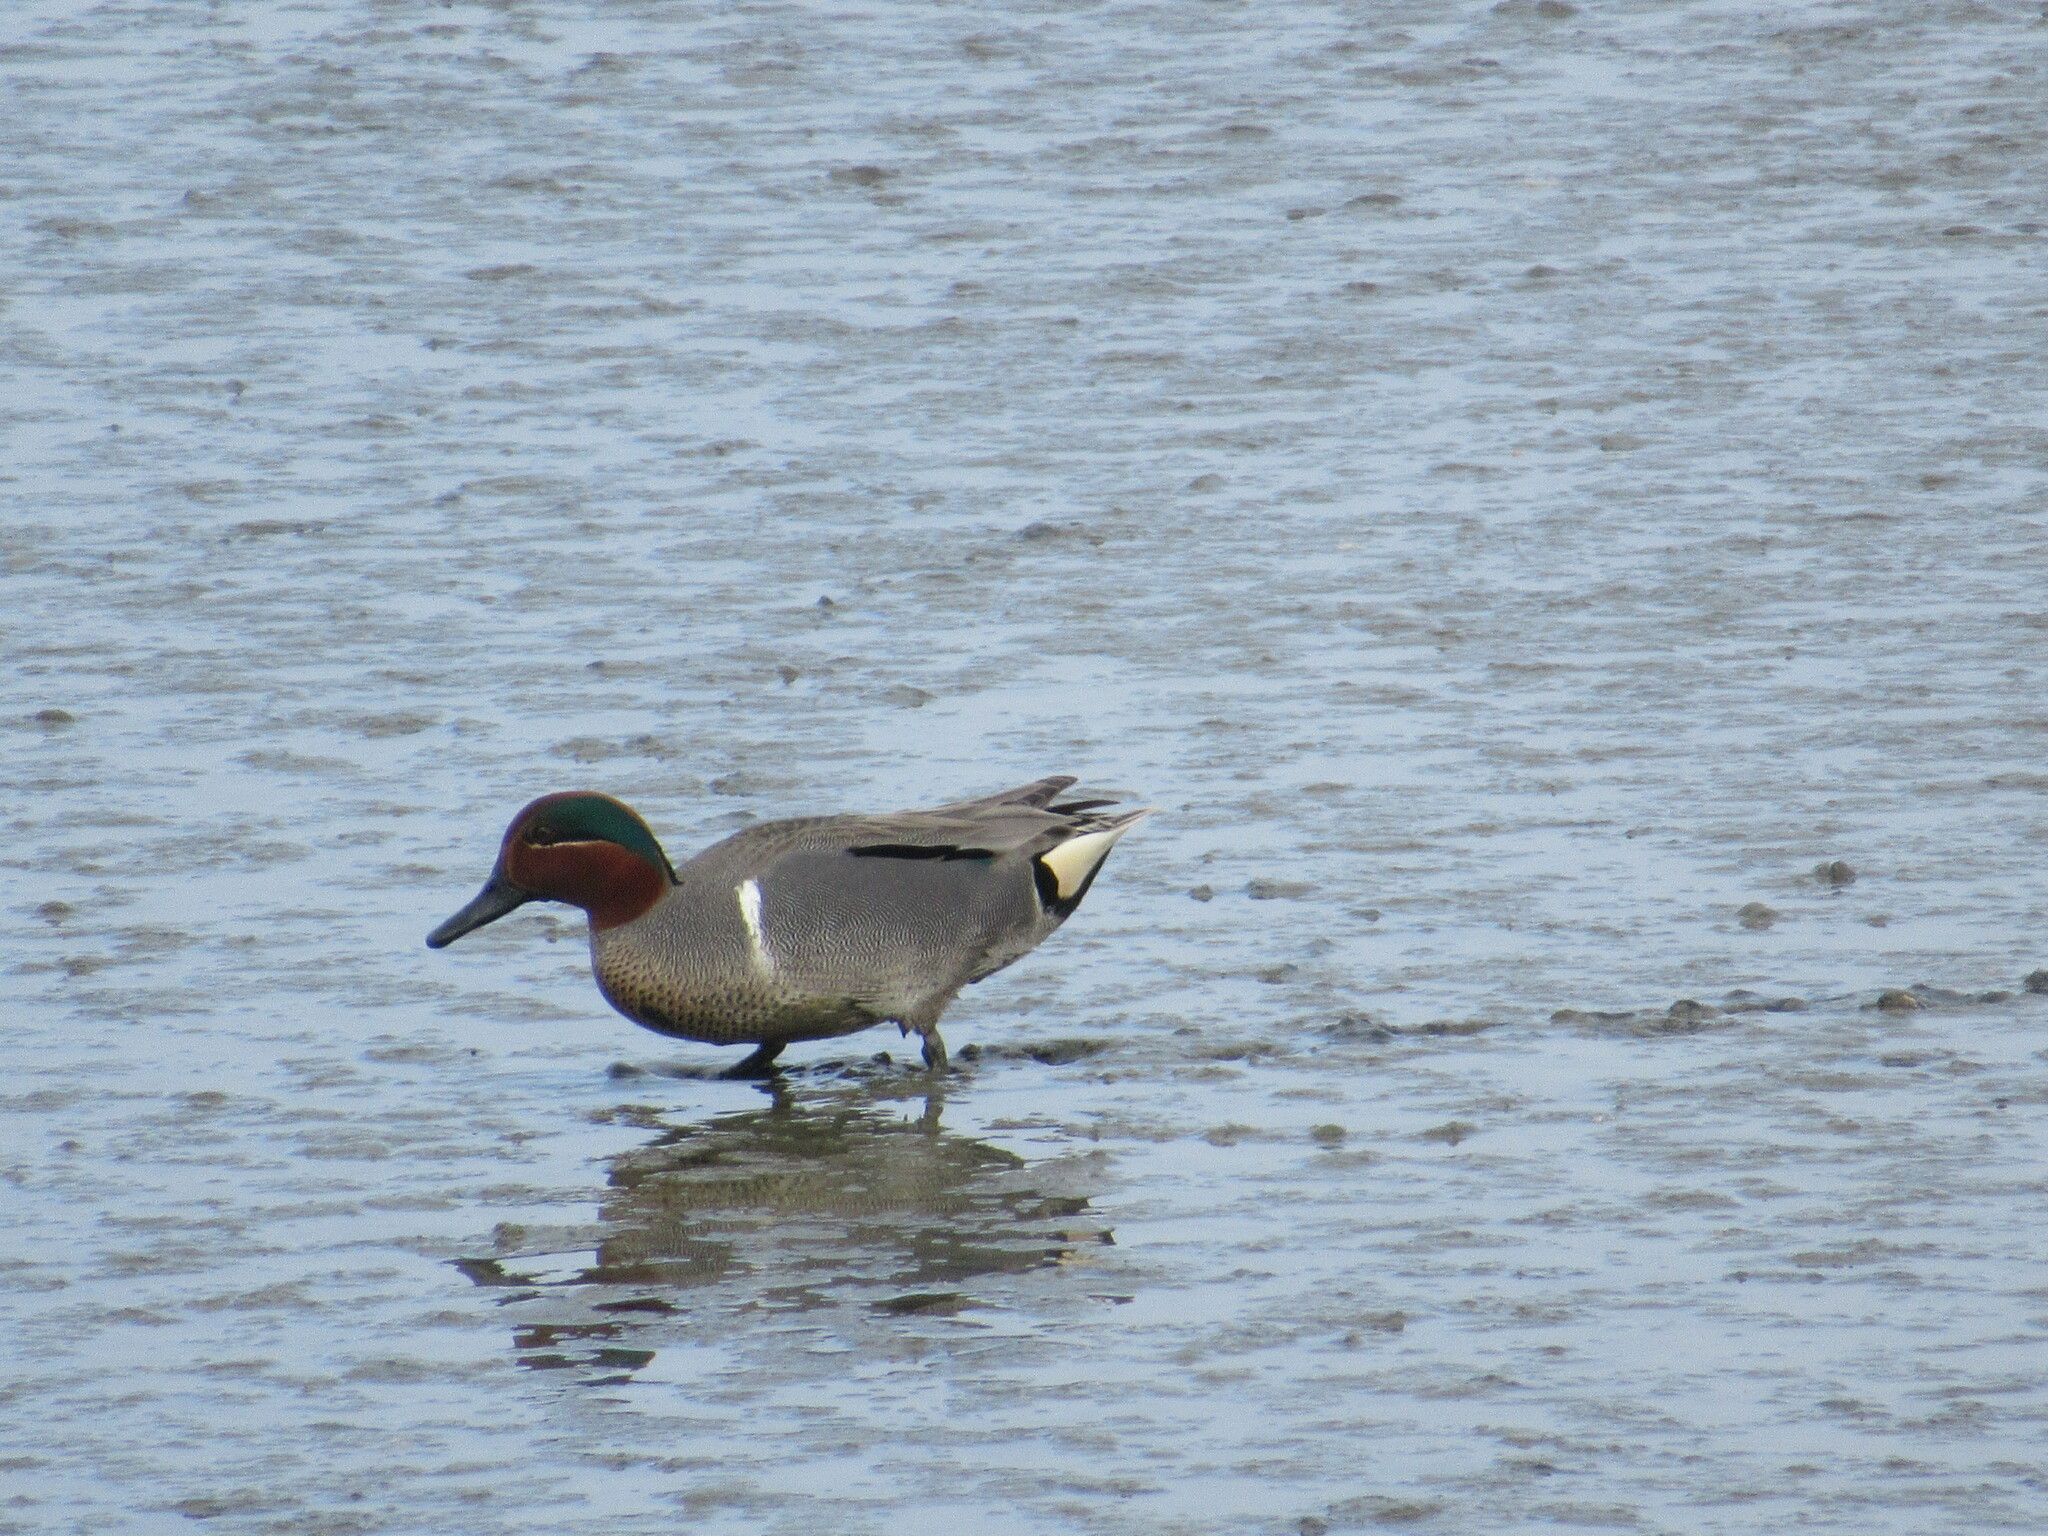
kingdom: Animalia
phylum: Chordata
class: Aves
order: Anseriformes
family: Anatidae
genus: Anas
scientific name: Anas crecca
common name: Eurasian teal
